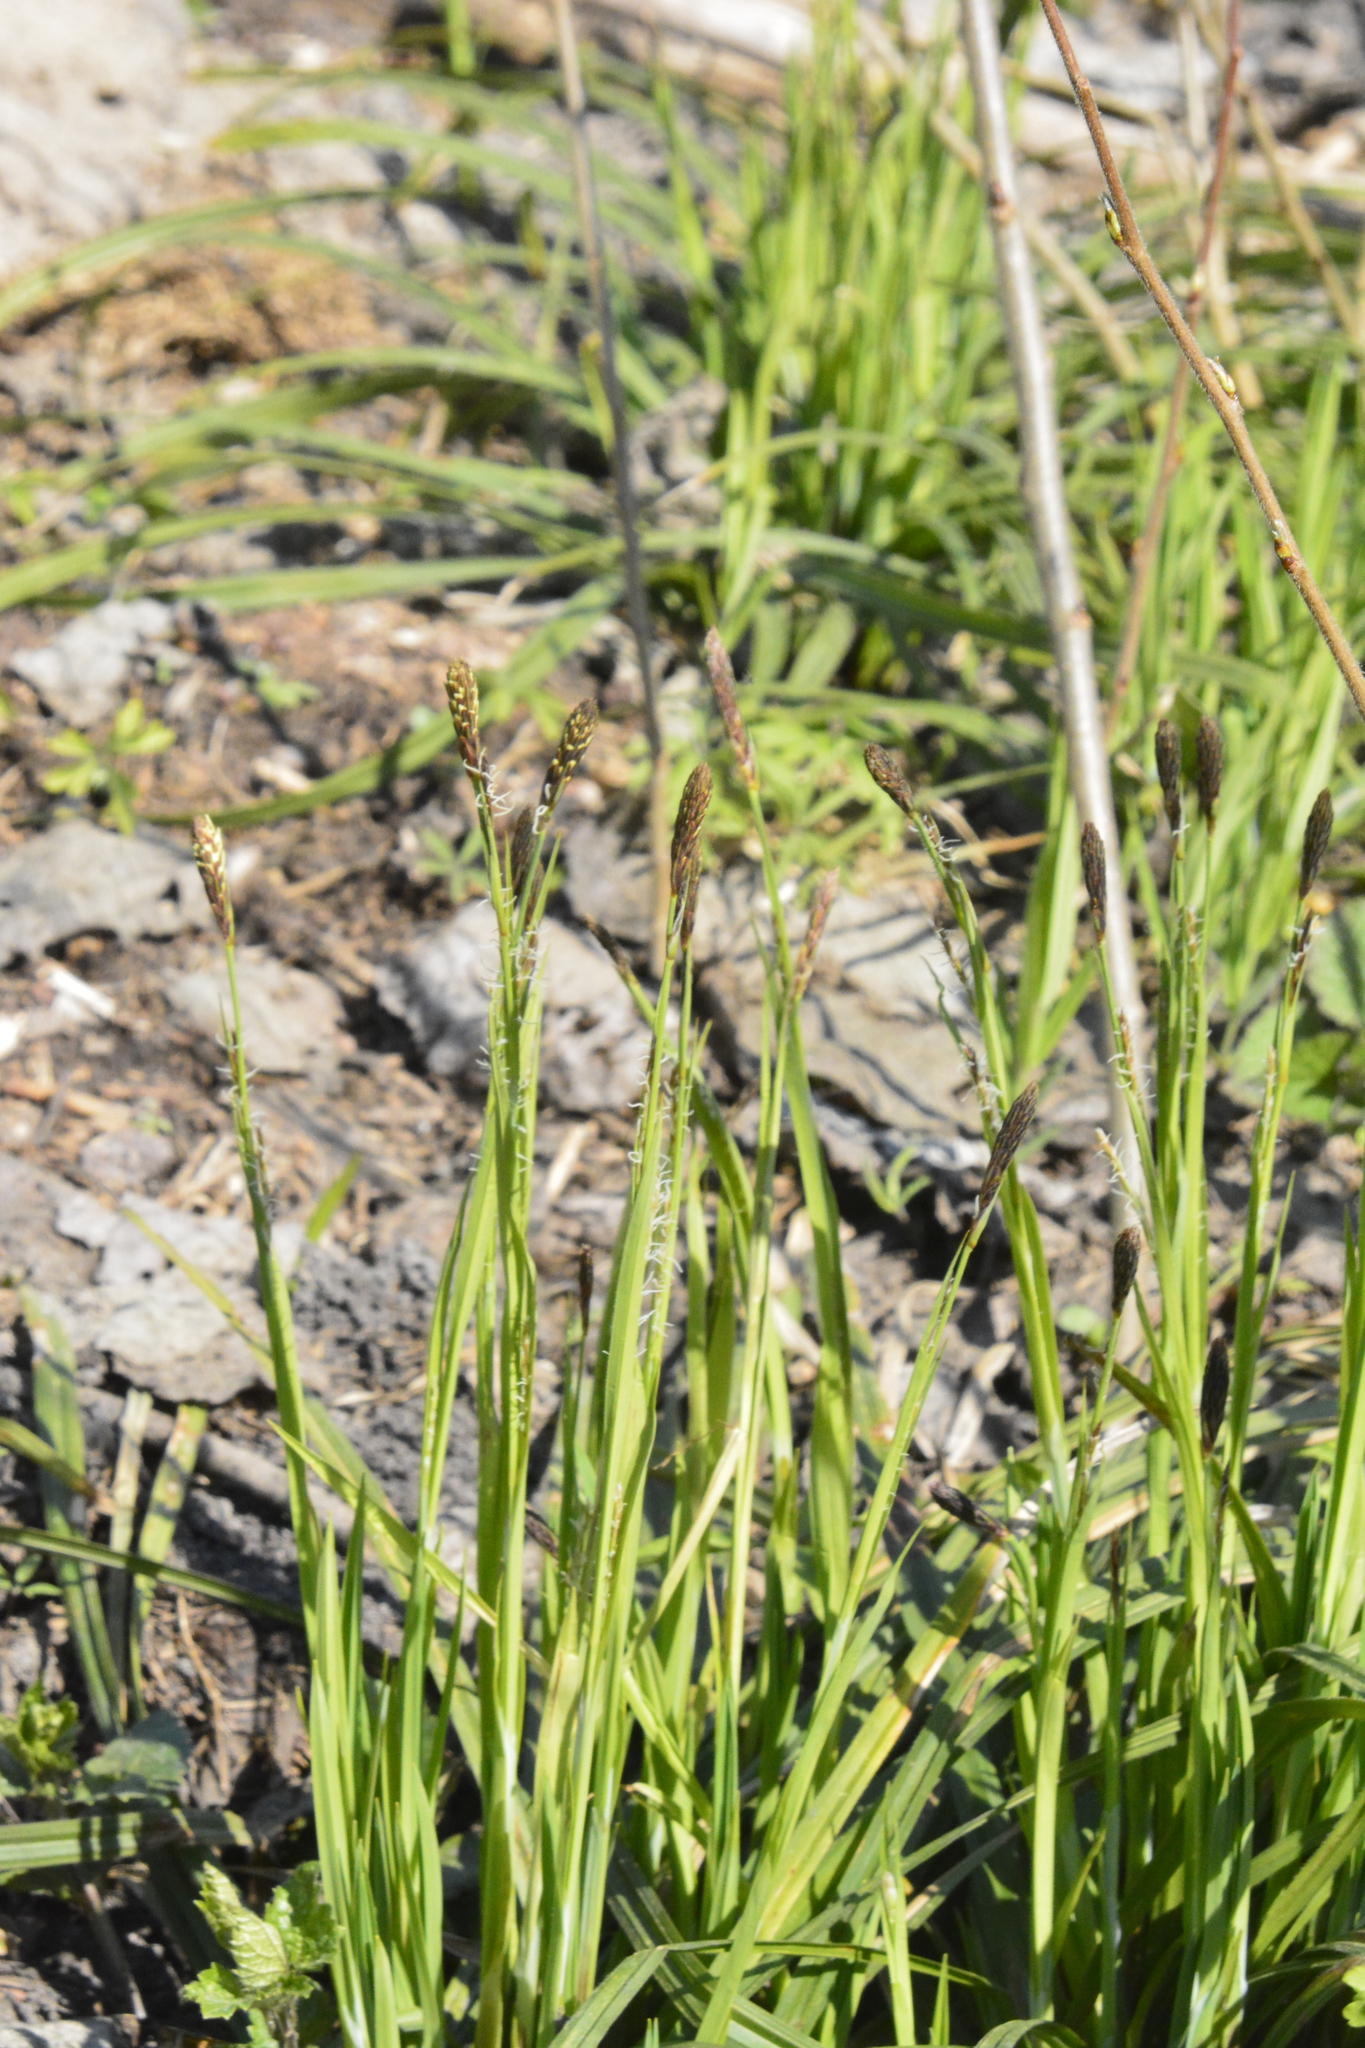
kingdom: Plantae
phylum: Tracheophyta
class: Liliopsida
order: Poales
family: Cyperaceae
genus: Carex
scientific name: Carex pilosa
